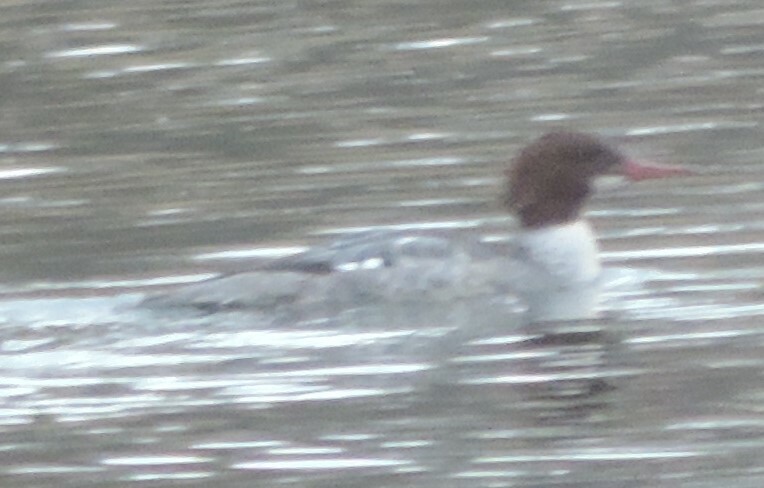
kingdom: Animalia
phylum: Chordata
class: Aves
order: Anseriformes
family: Anatidae
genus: Mergus
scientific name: Mergus merganser
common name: Common merganser
